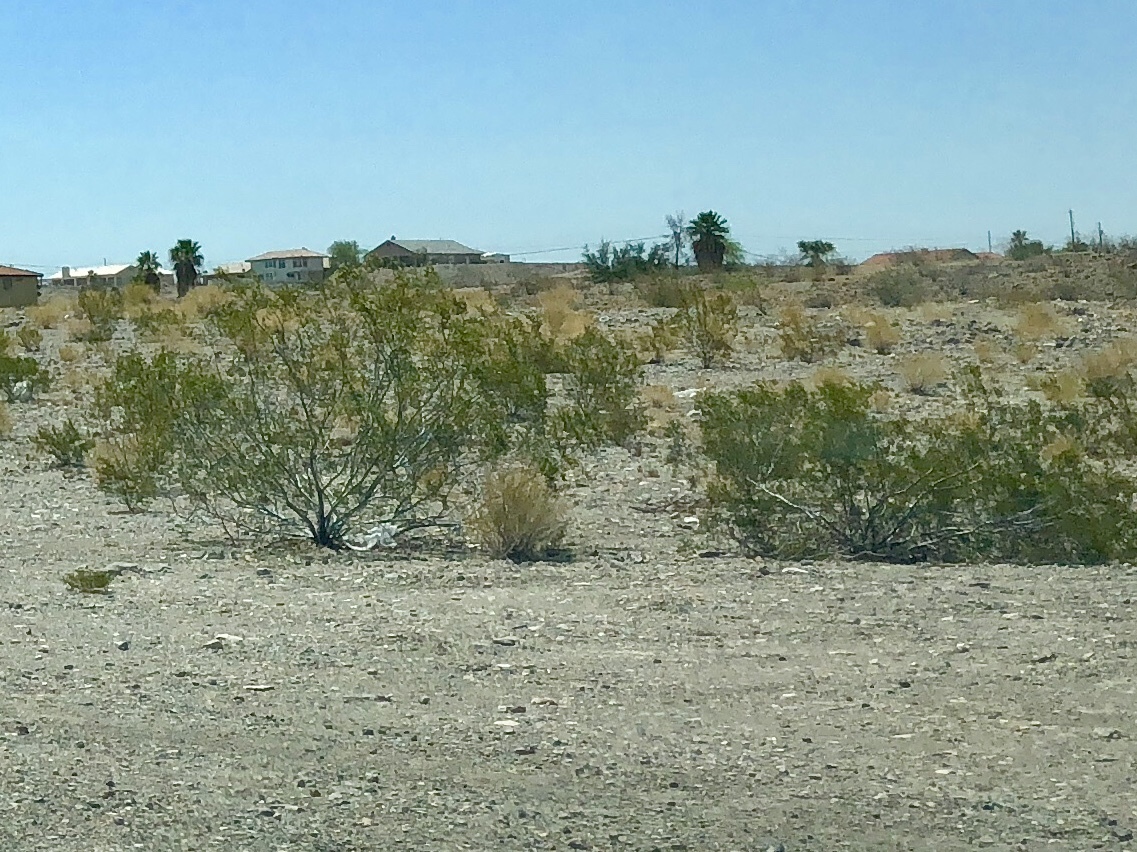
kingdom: Plantae
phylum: Tracheophyta
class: Magnoliopsida
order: Zygophyllales
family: Zygophyllaceae
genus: Larrea
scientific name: Larrea tridentata
